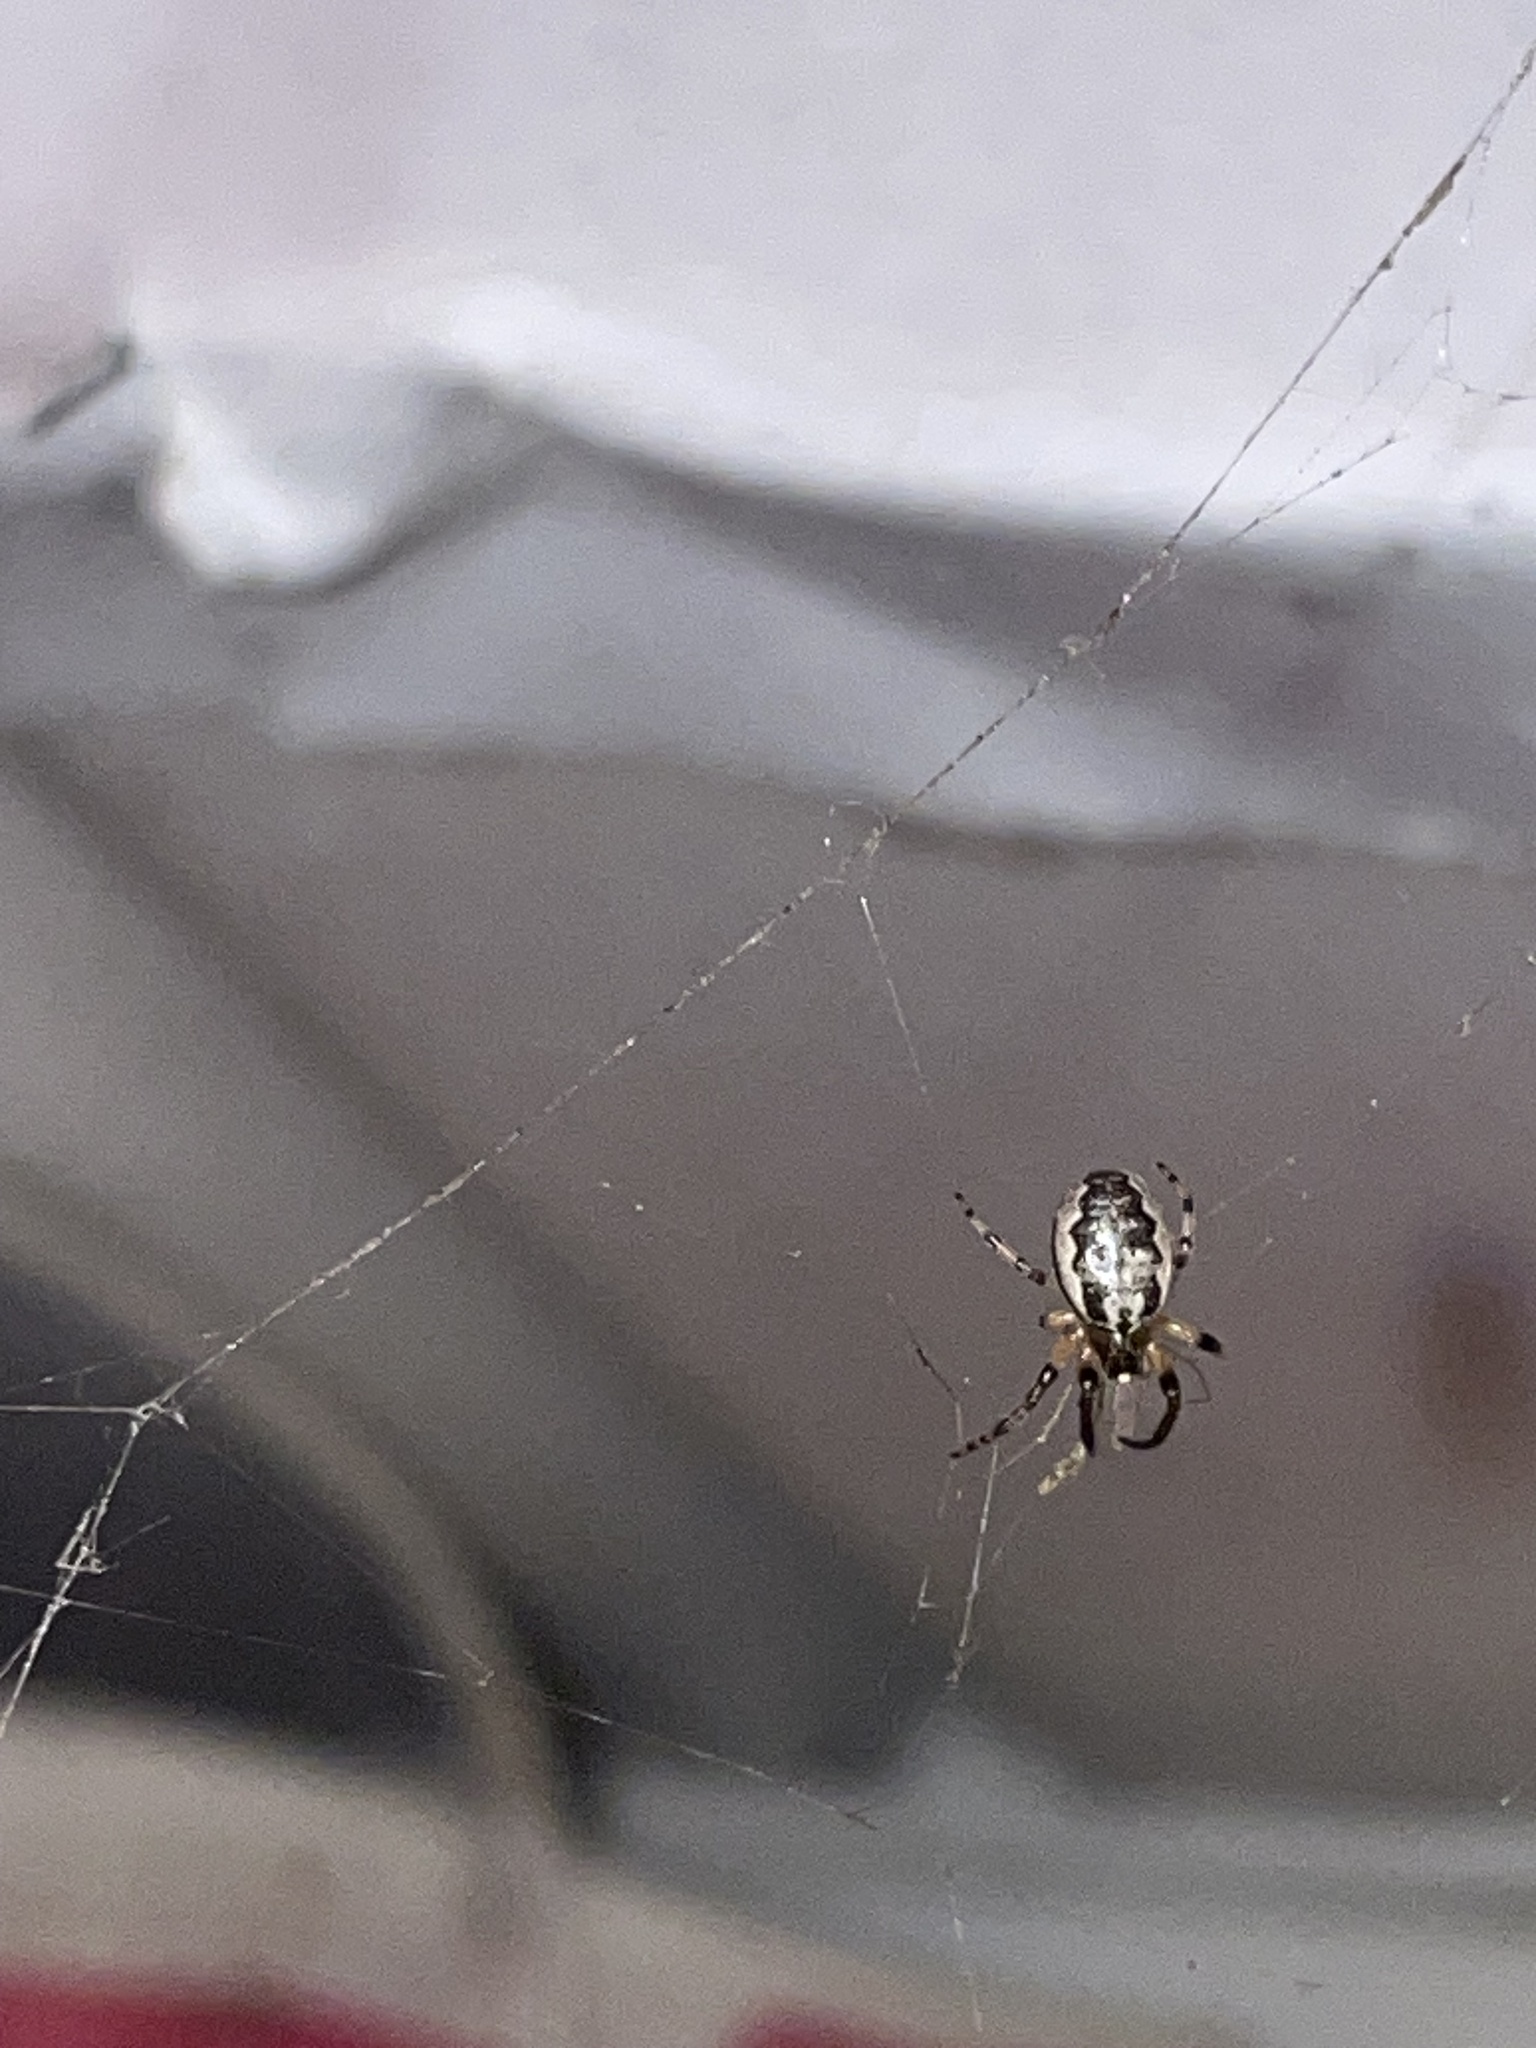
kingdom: Animalia
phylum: Arthropoda
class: Arachnida
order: Araneae
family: Araneidae
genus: Larinioides
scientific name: Larinioides cornutus
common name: Furrow orbweaver
